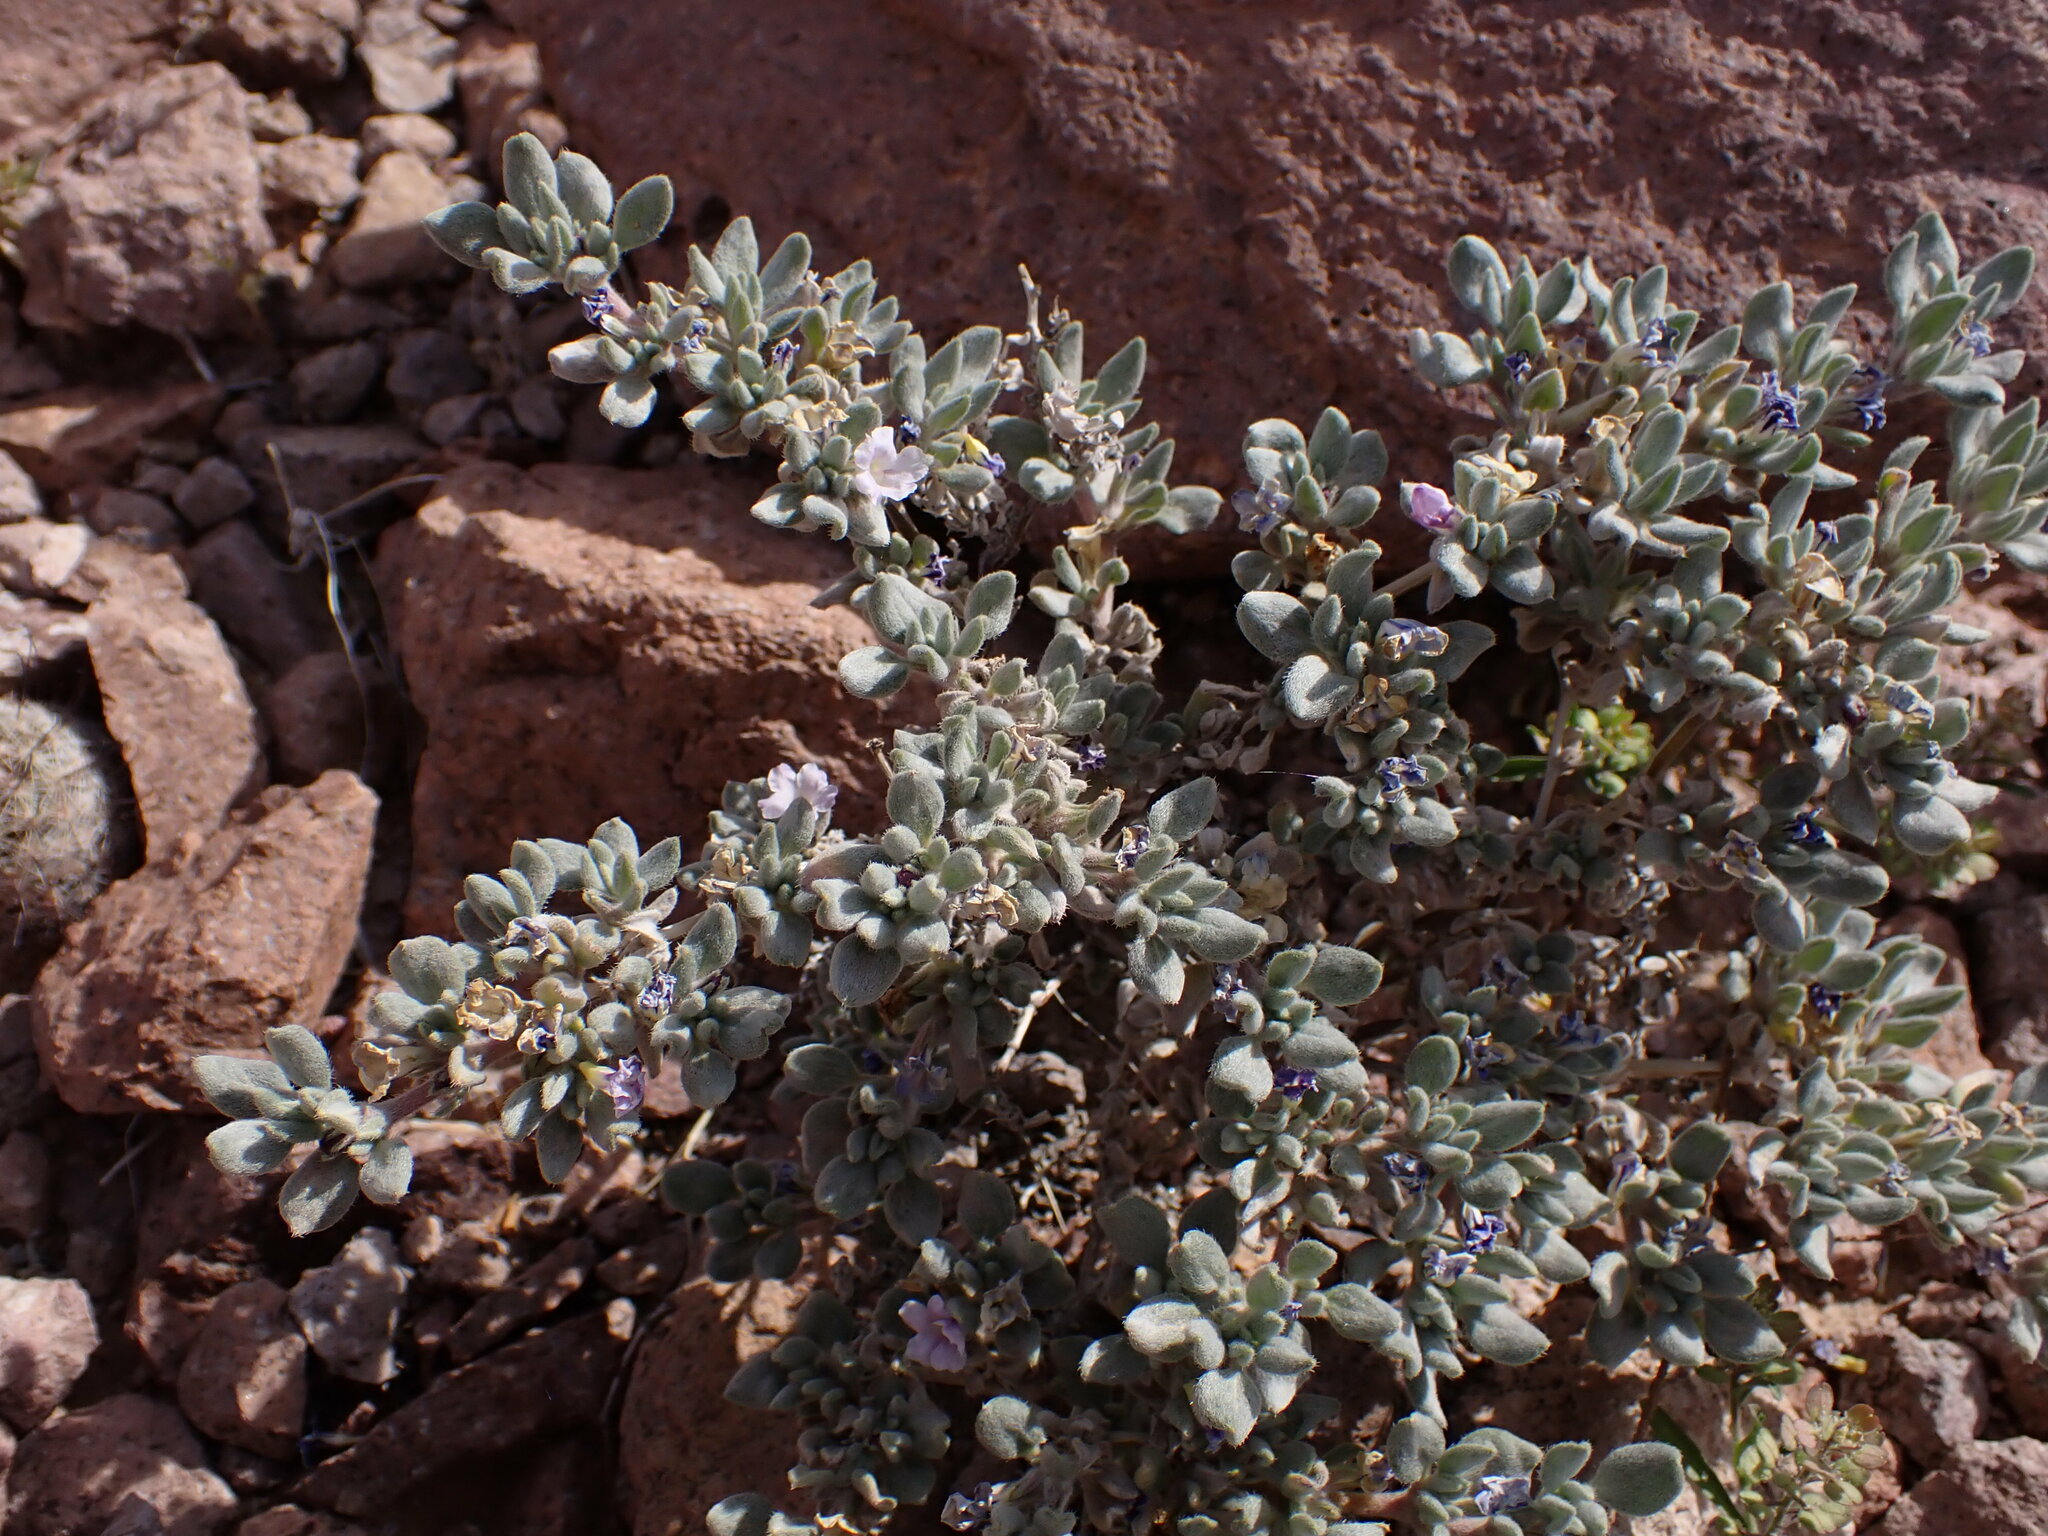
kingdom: Plantae
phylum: Tracheophyta
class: Magnoliopsida
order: Boraginales
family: Ehretiaceae
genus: Tiquilia
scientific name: Tiquilia canescens
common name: Hairy tiquilia
